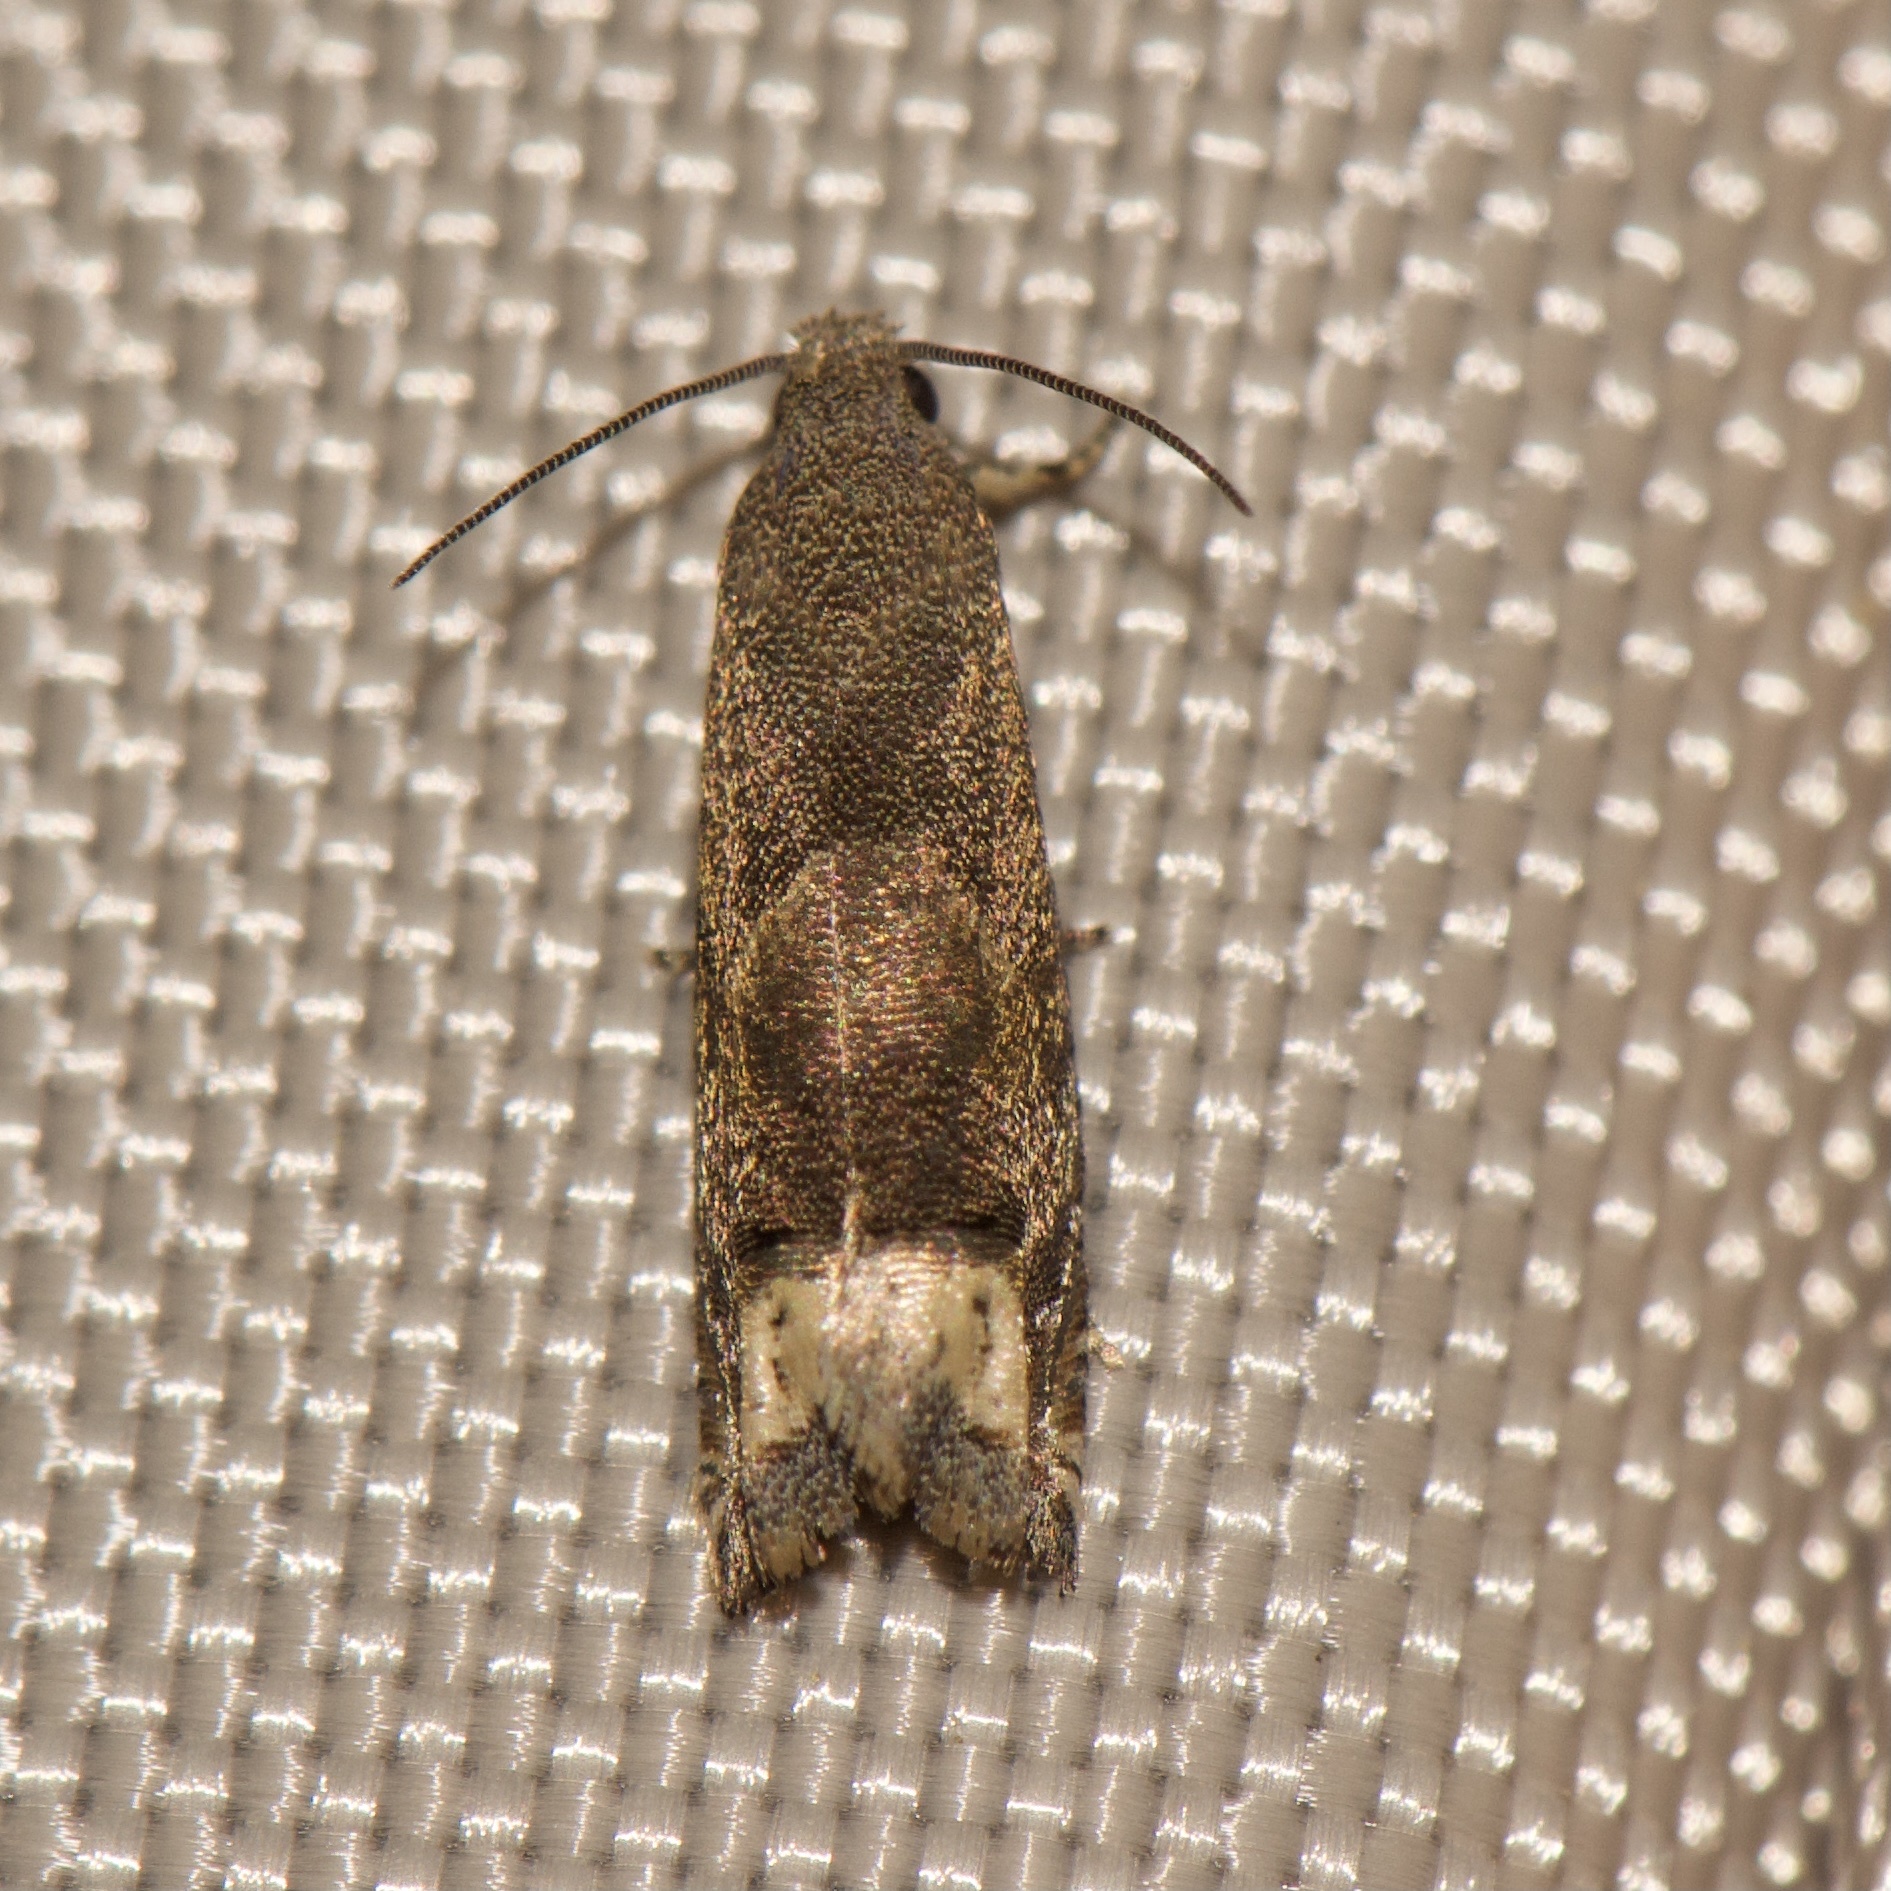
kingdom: Animalia
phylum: Arthropoda
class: Insecta
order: Lepidoptera
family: Tortricidae
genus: Epiblema
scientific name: Epiblema strenuana
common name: Ragweed borer moth
